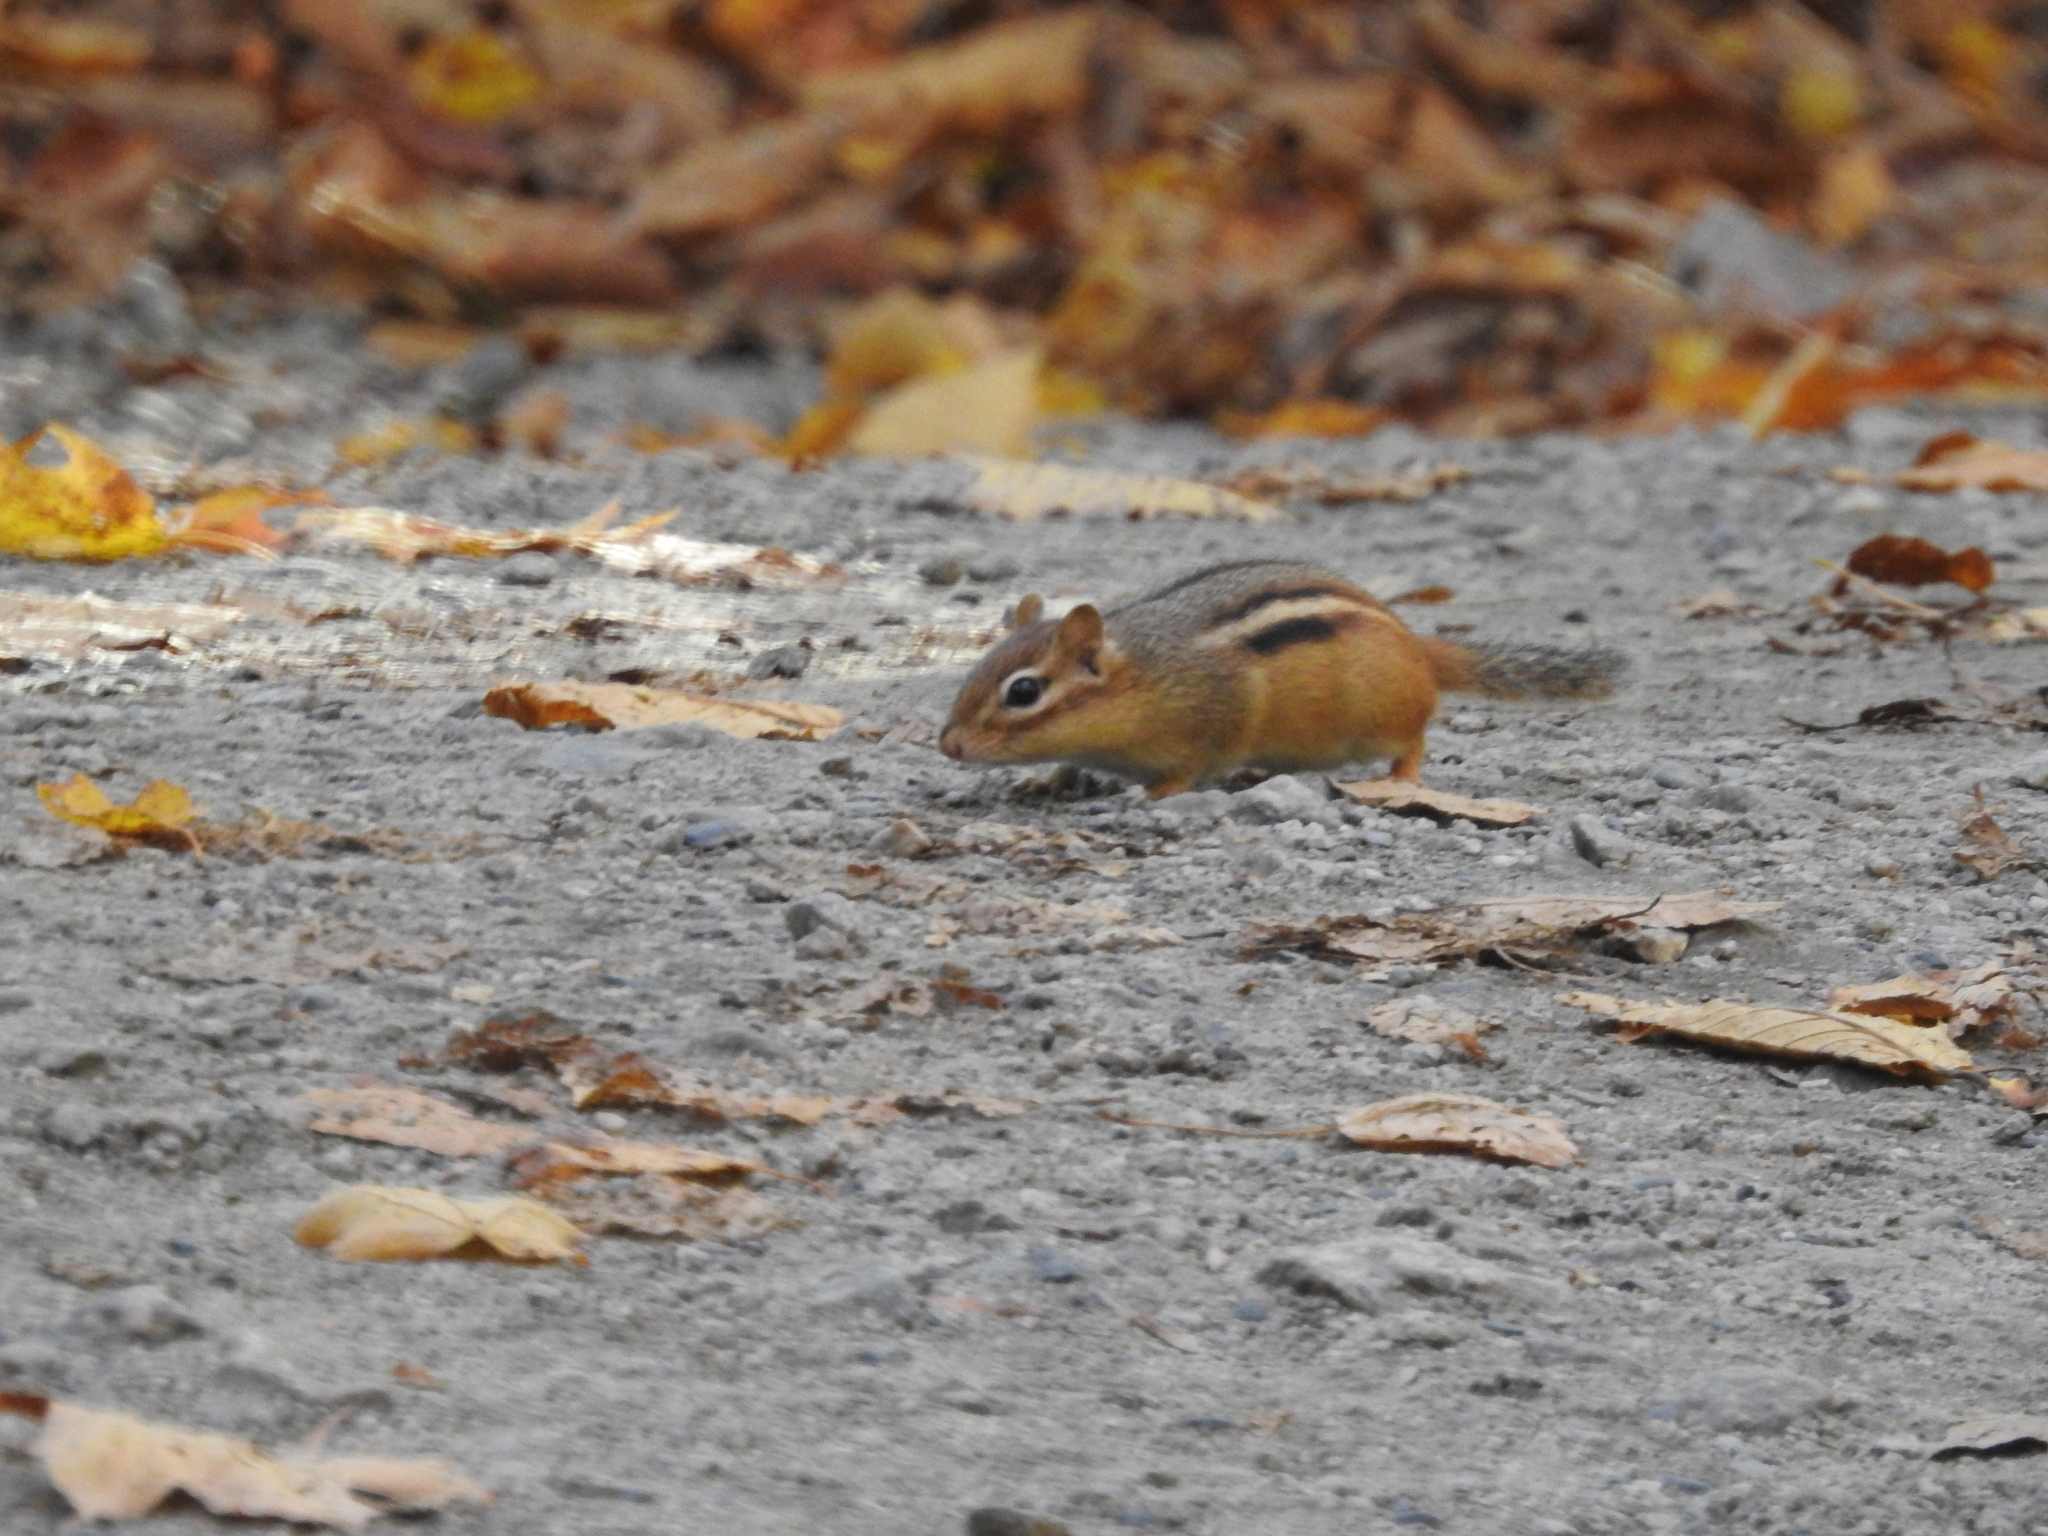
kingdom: Animalia
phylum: Chordata
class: Mammalia
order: Rodentia
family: Sciuridae
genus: Tamias
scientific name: Tamias striatus
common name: Eastern chipmunk
